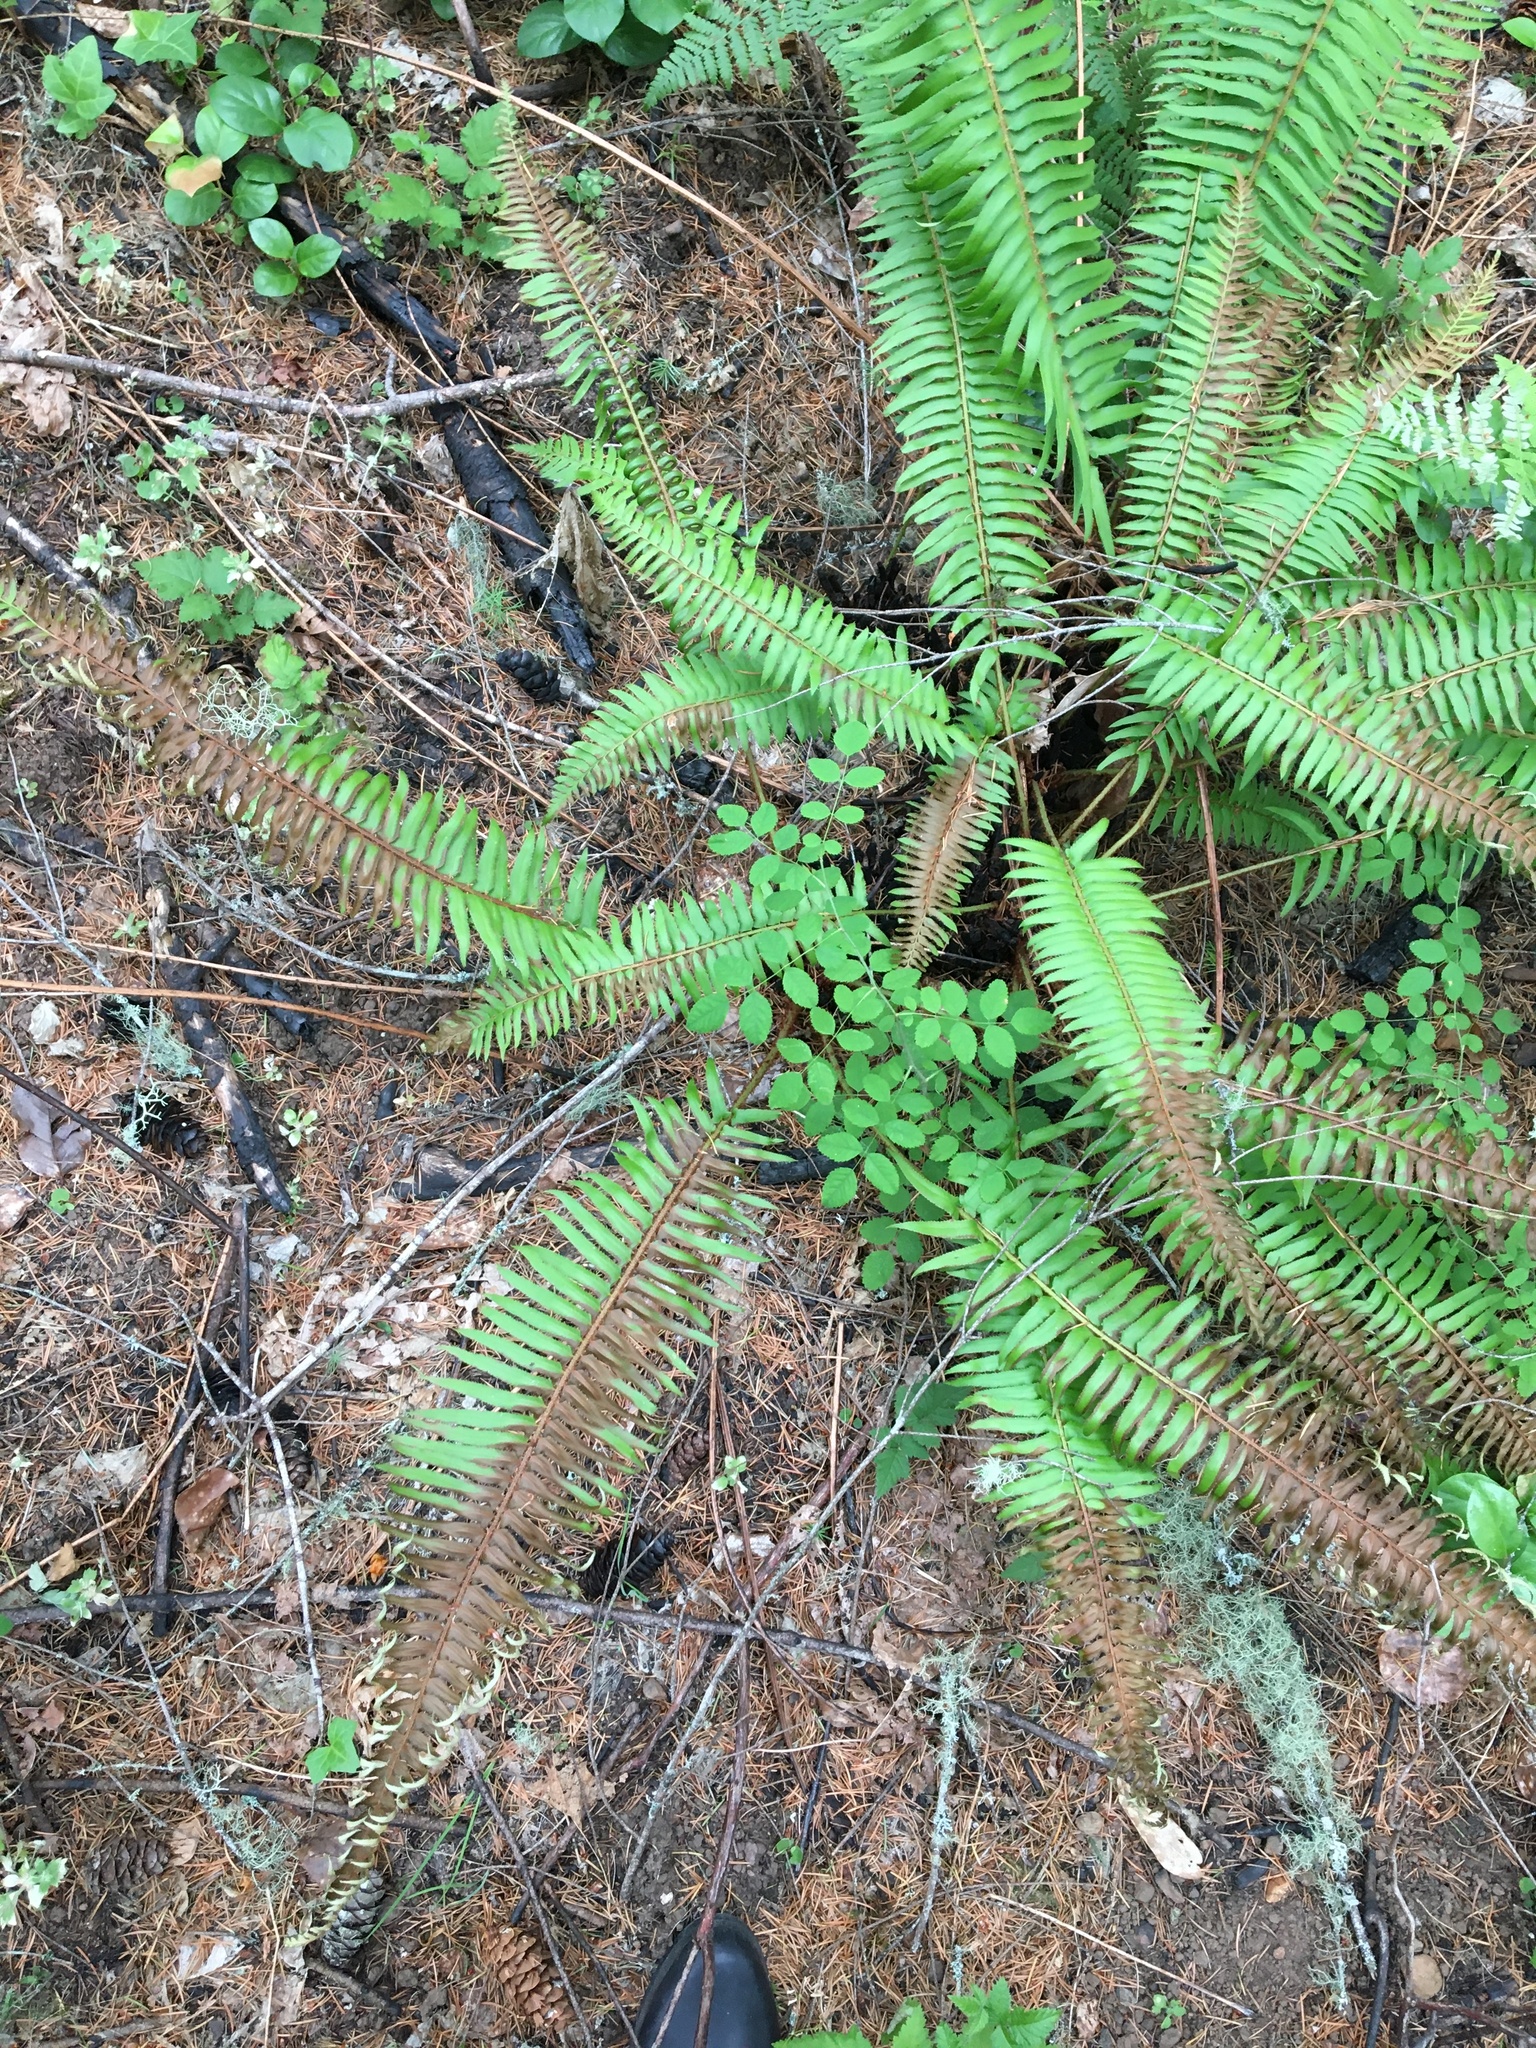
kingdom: Plantae
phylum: Tracheophyta
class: Polypodiopsida
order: Polypodiales
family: Dryopteridaceae
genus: Polystichum
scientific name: Polystichum munitum
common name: Western sword-fern
